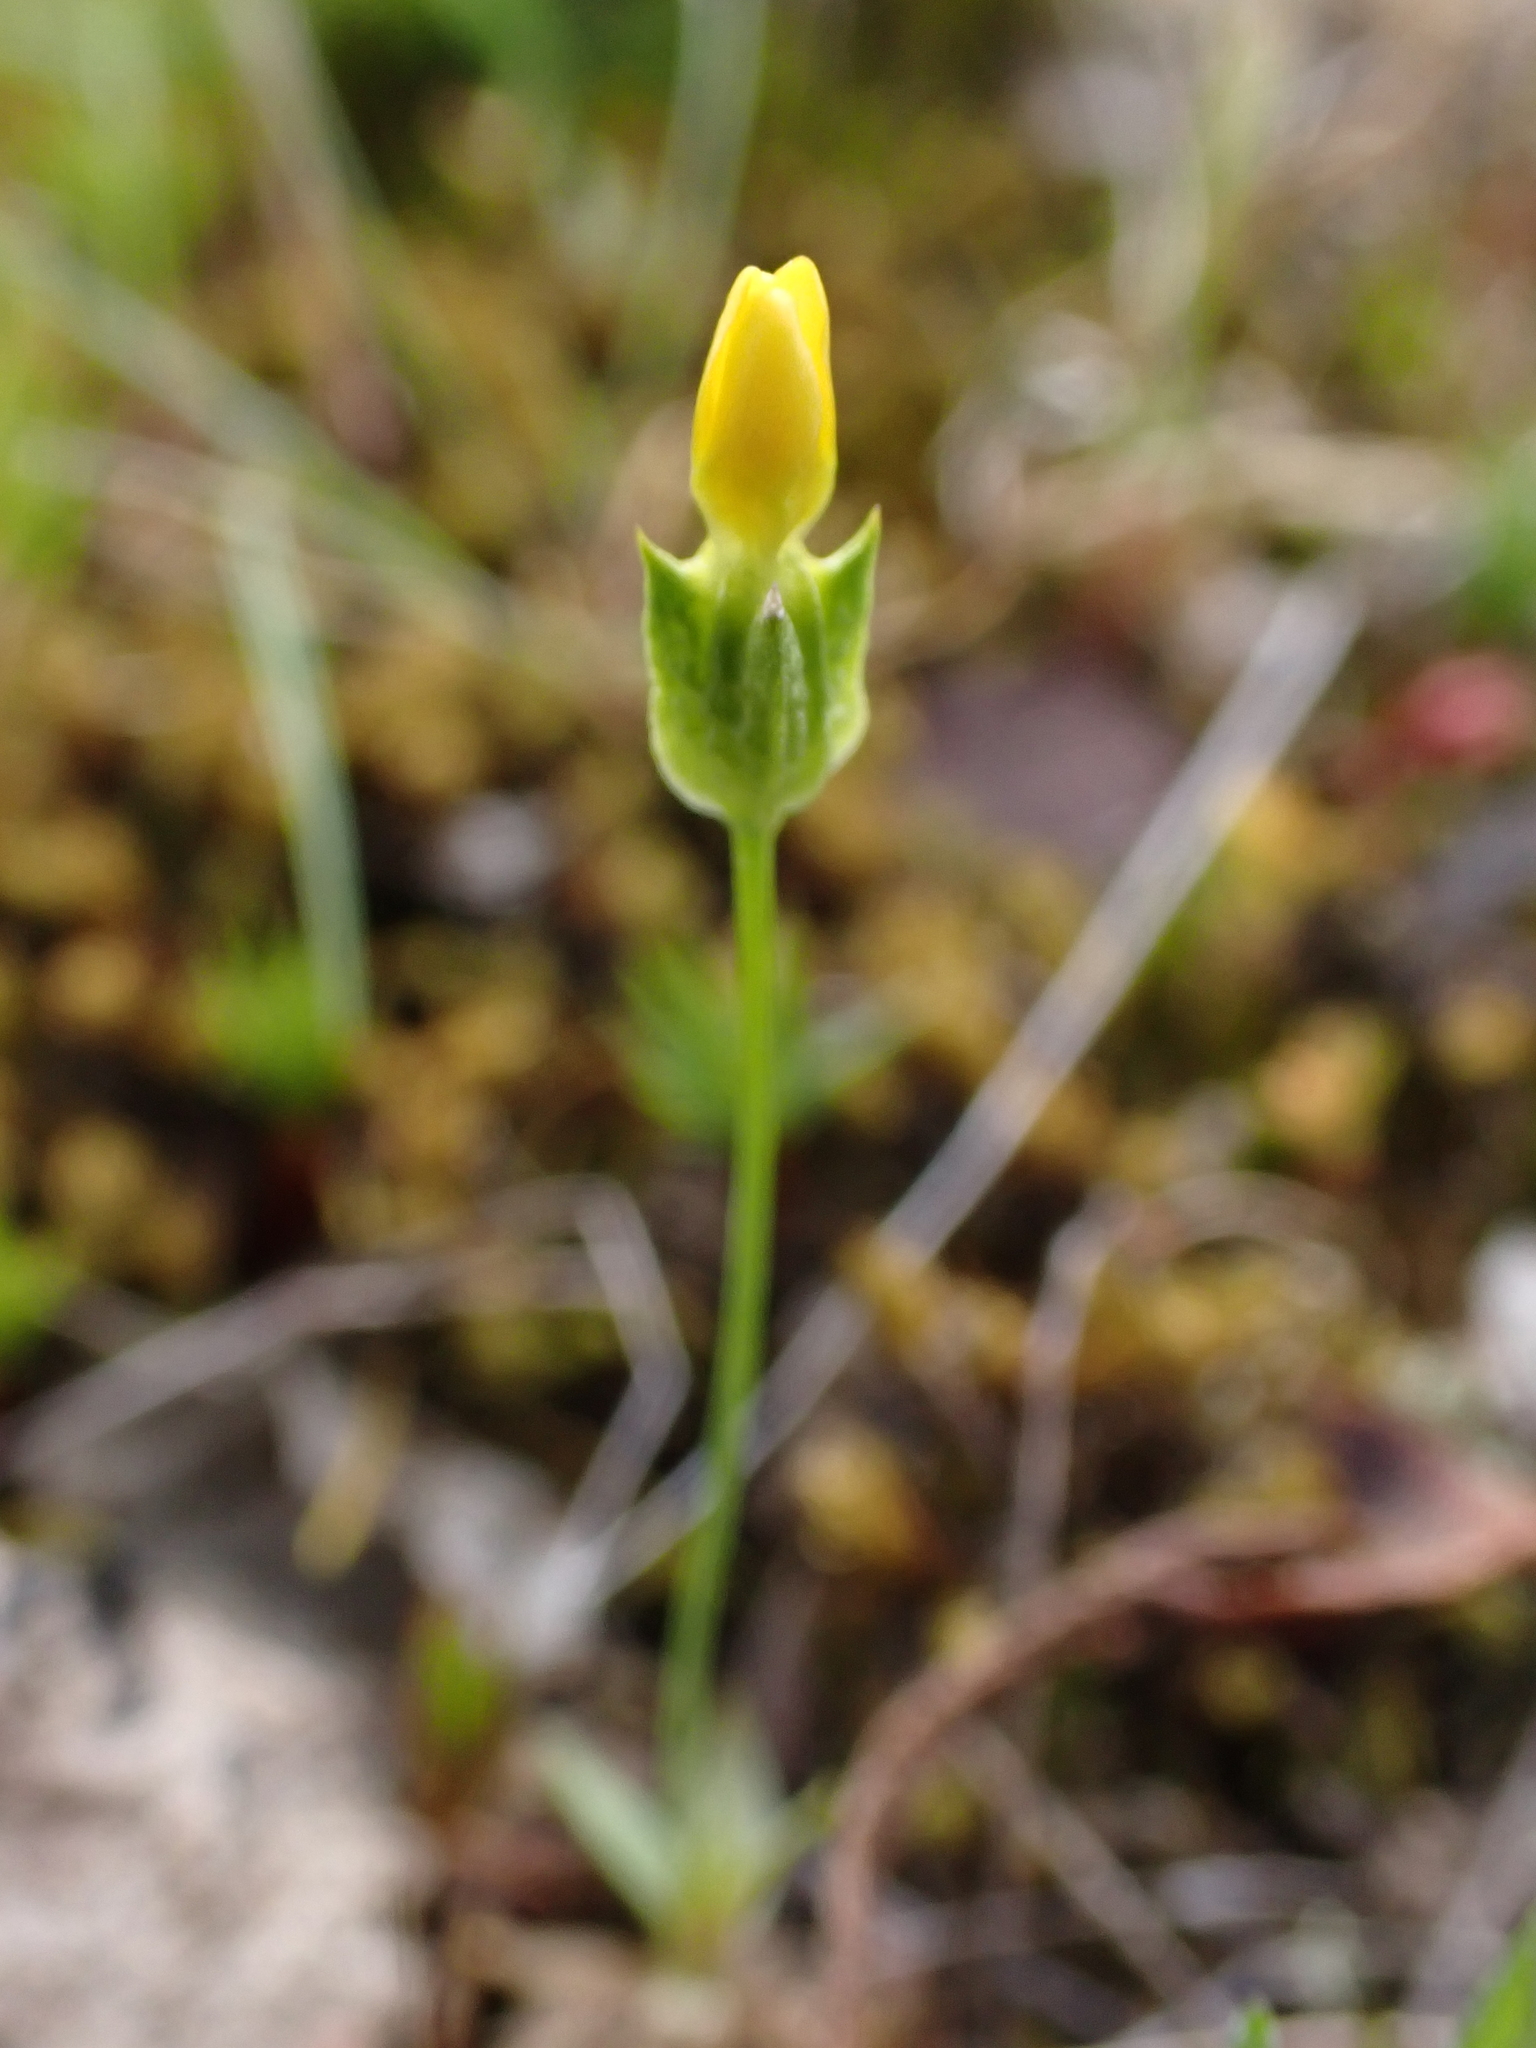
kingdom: Plantae
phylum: Tracheophyta
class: Magnoliopsida
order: Gentianales
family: Gentianaceae
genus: Microcala
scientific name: Microcala quadrangularis
